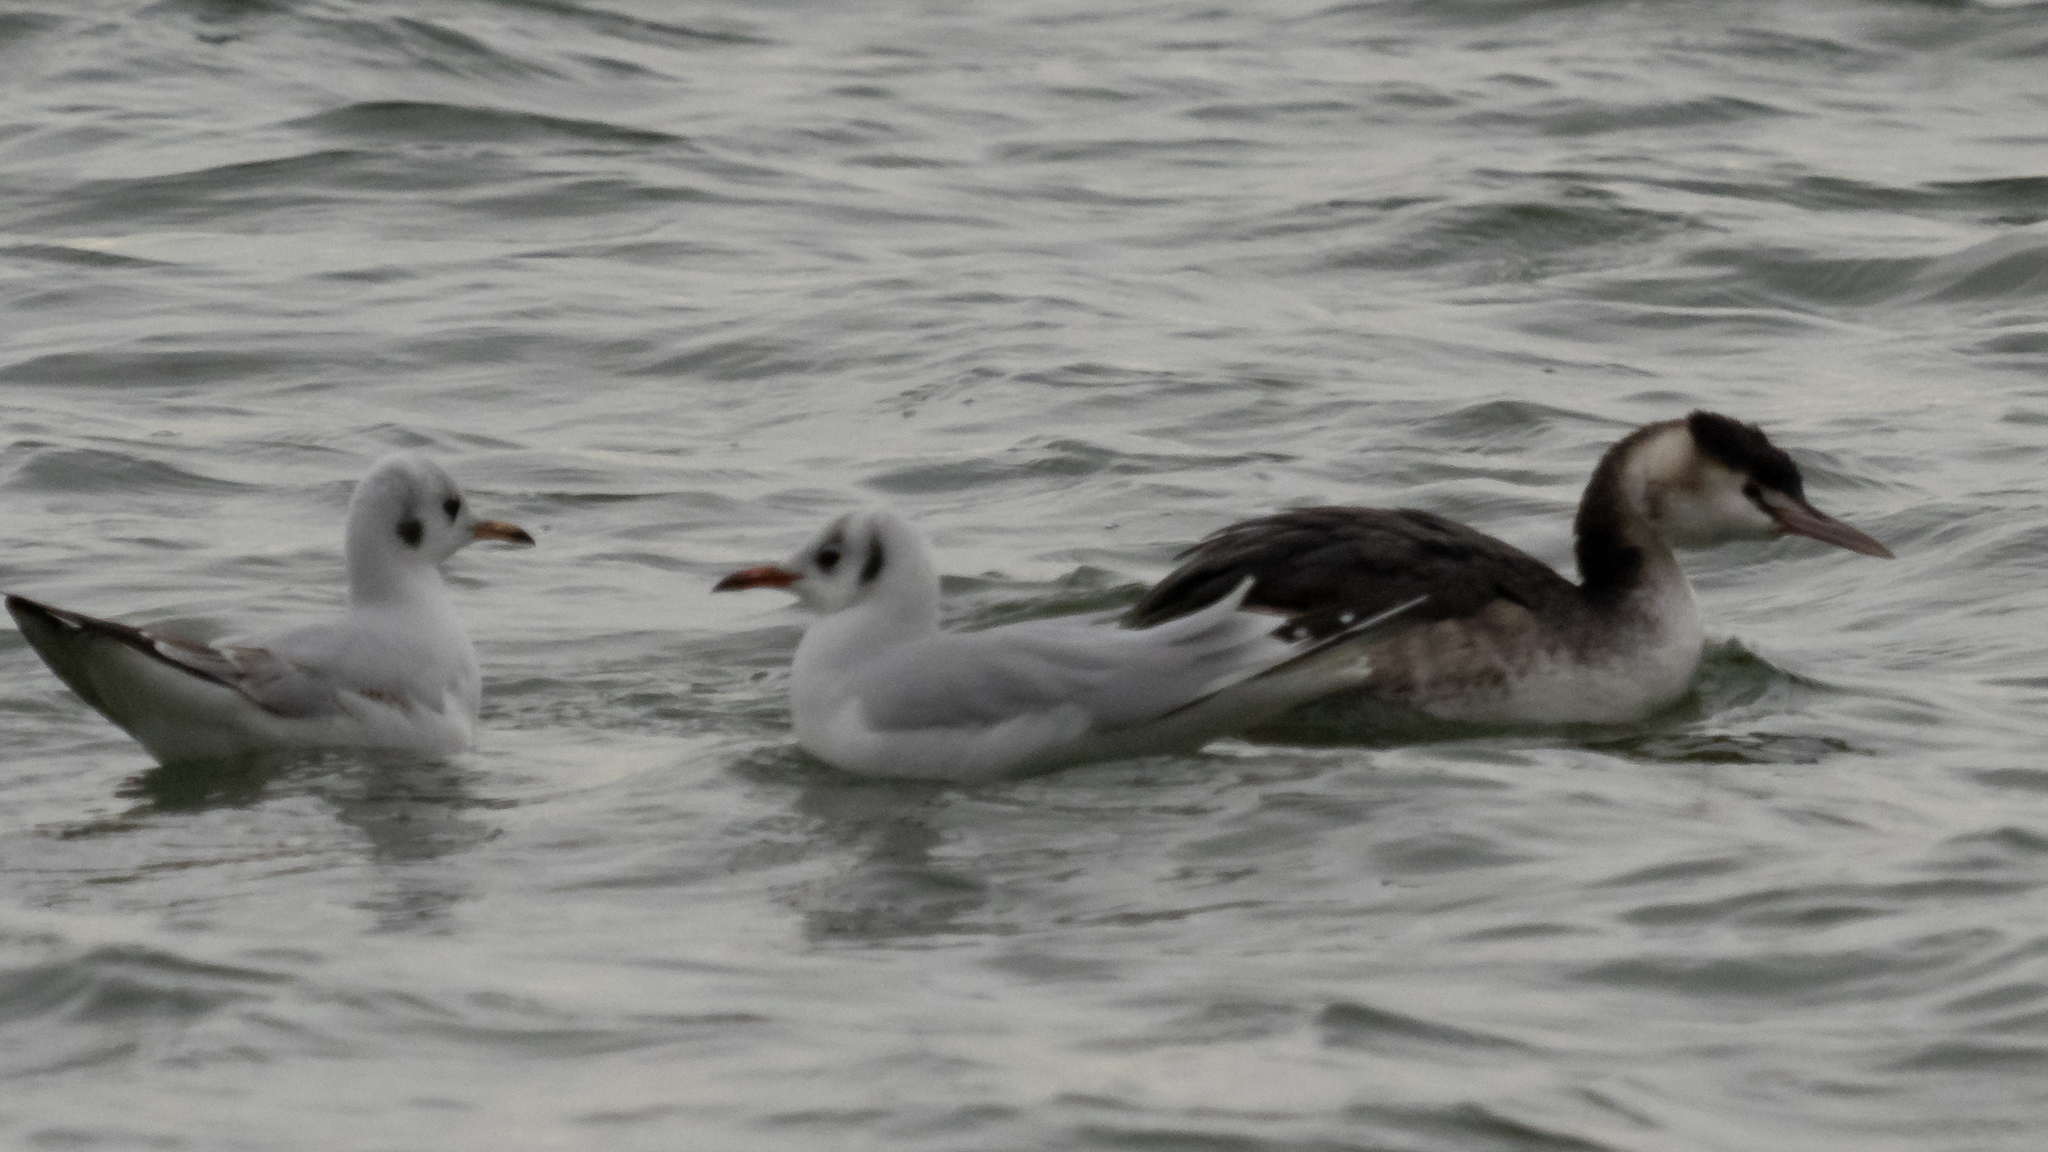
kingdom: Animalia
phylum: Chordata
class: Aves
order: Podicipediformes
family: Podicipedidae
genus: Podiceps
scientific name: Podiceps cristatus
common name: Great crested grebe
